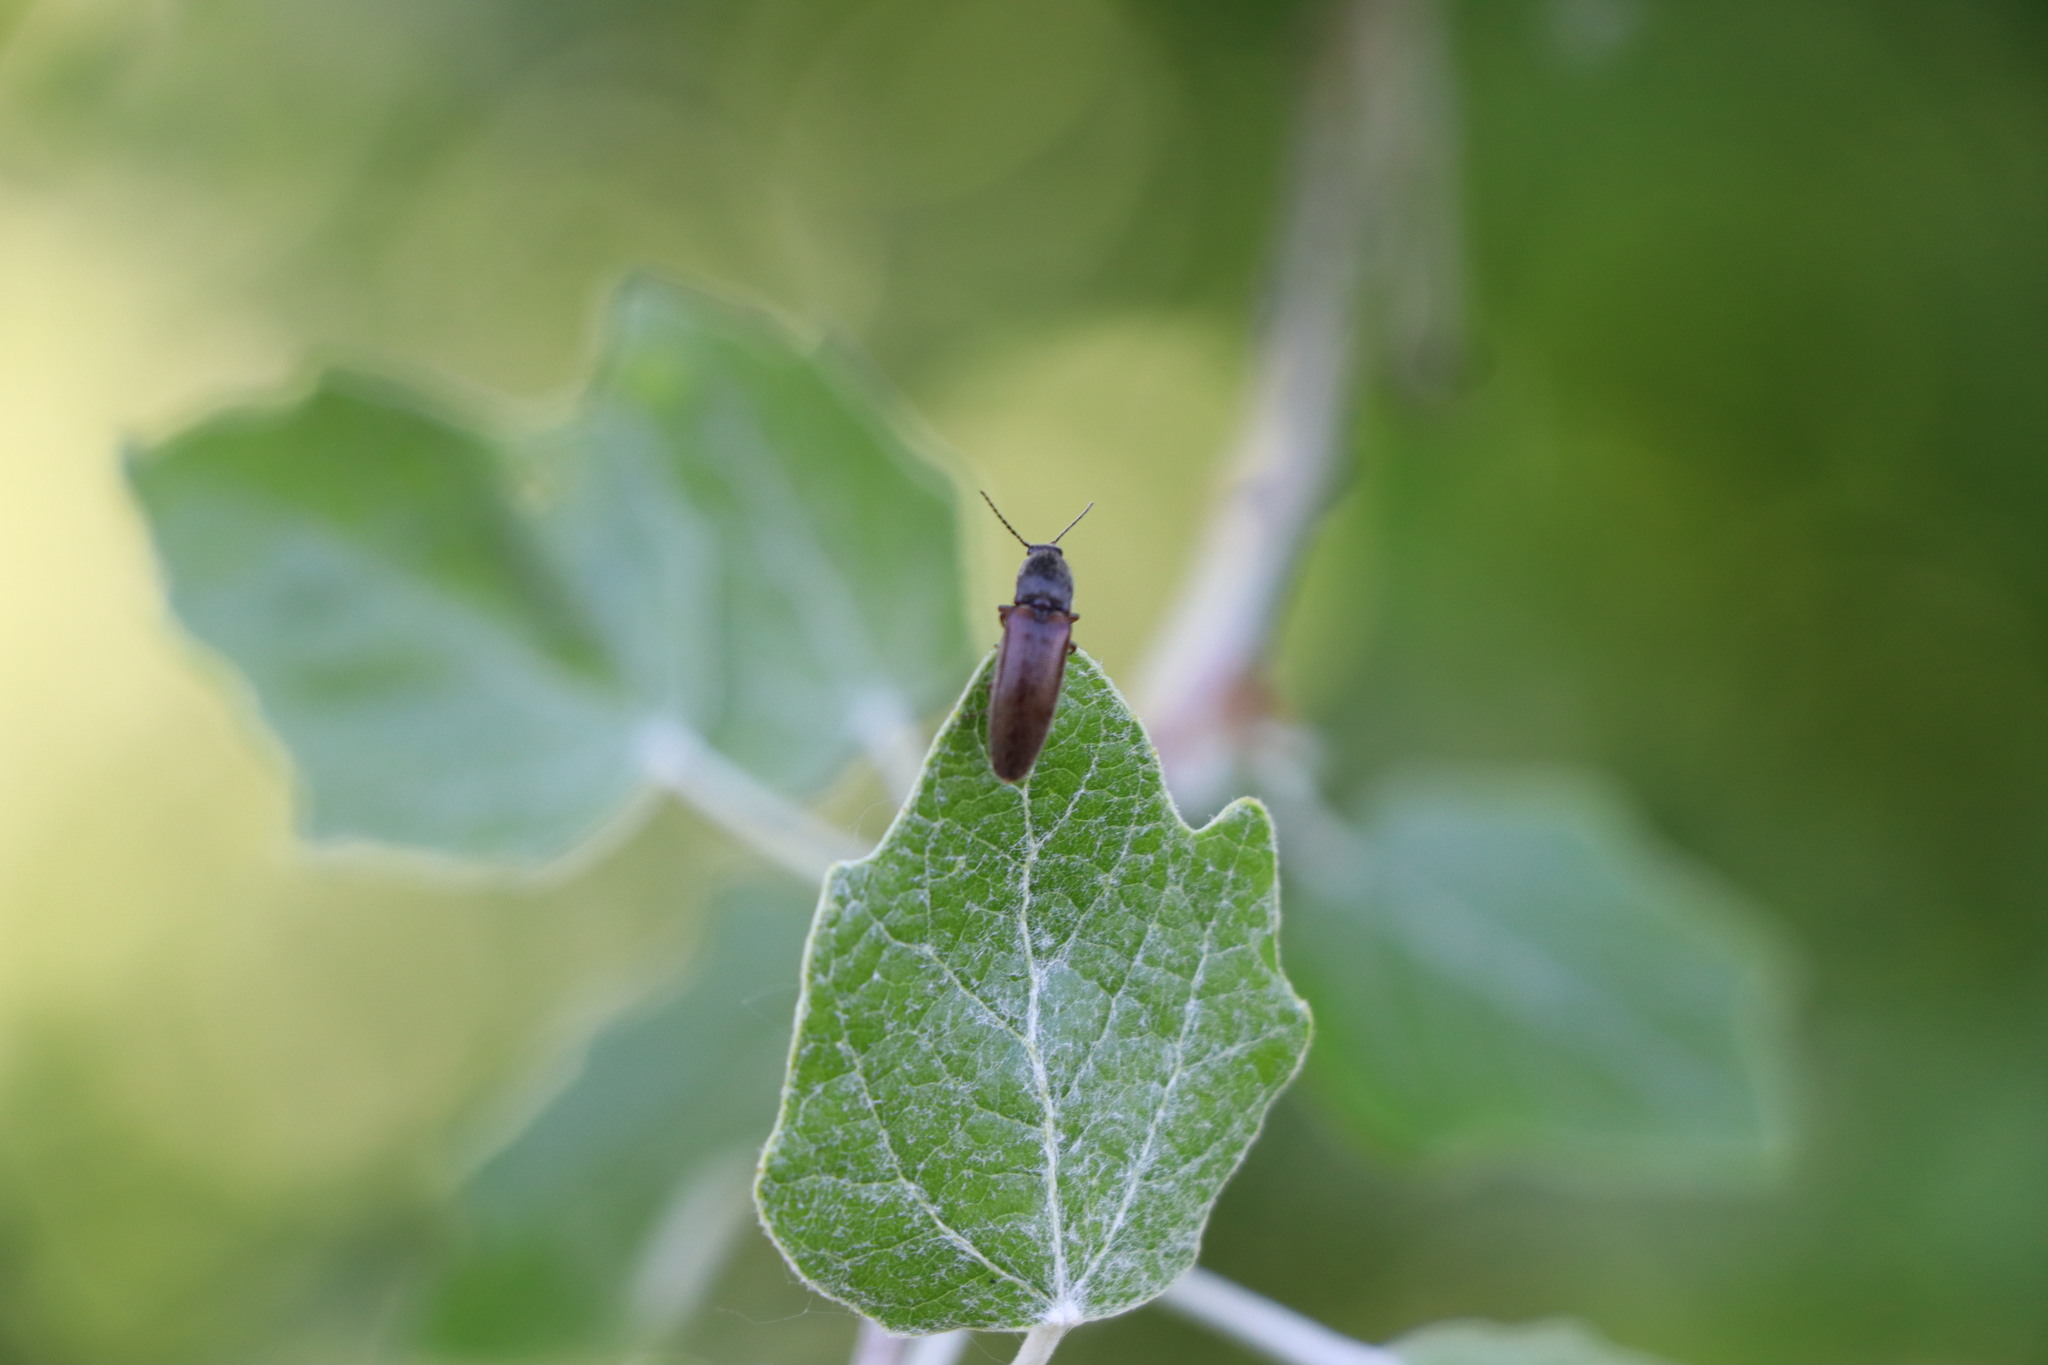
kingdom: Animalia
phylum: Arthropoda
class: Insecta
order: Coleoptera
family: Elateridae
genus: Athous
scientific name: Athous haemorrhoidalis
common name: Red-brown click beetle
